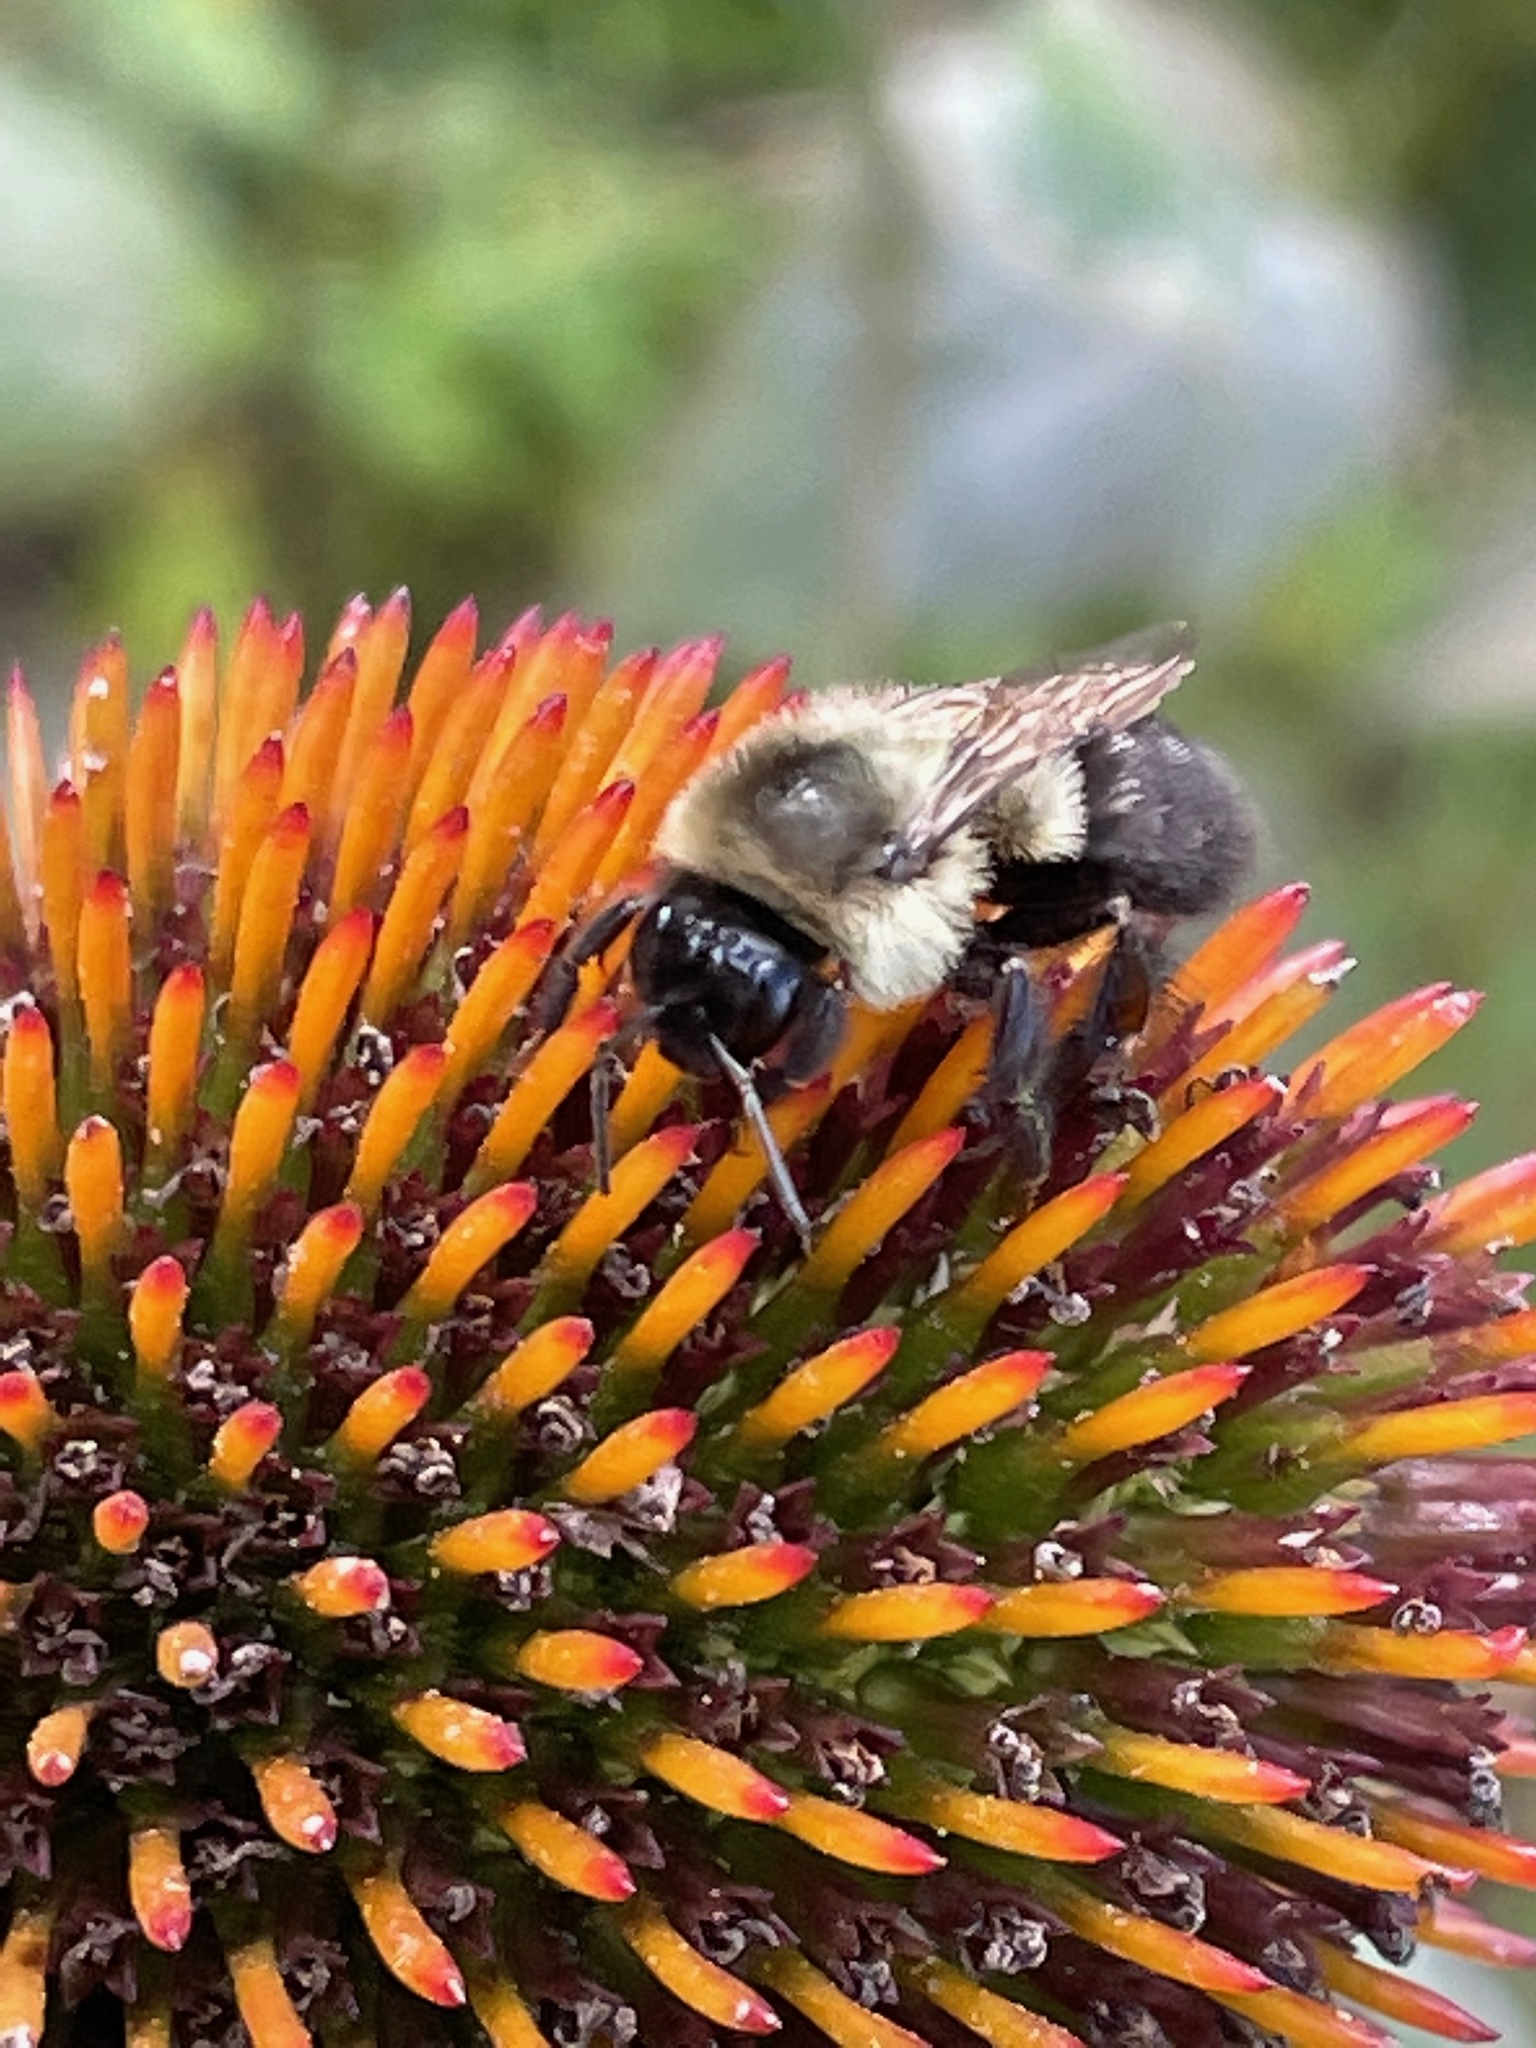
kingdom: Animalia
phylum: Arthropoda
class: Insecta
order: Hymenoptera
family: Apidae
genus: Bombus
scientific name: Bombus impatiens
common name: Common eastern bumble bee
